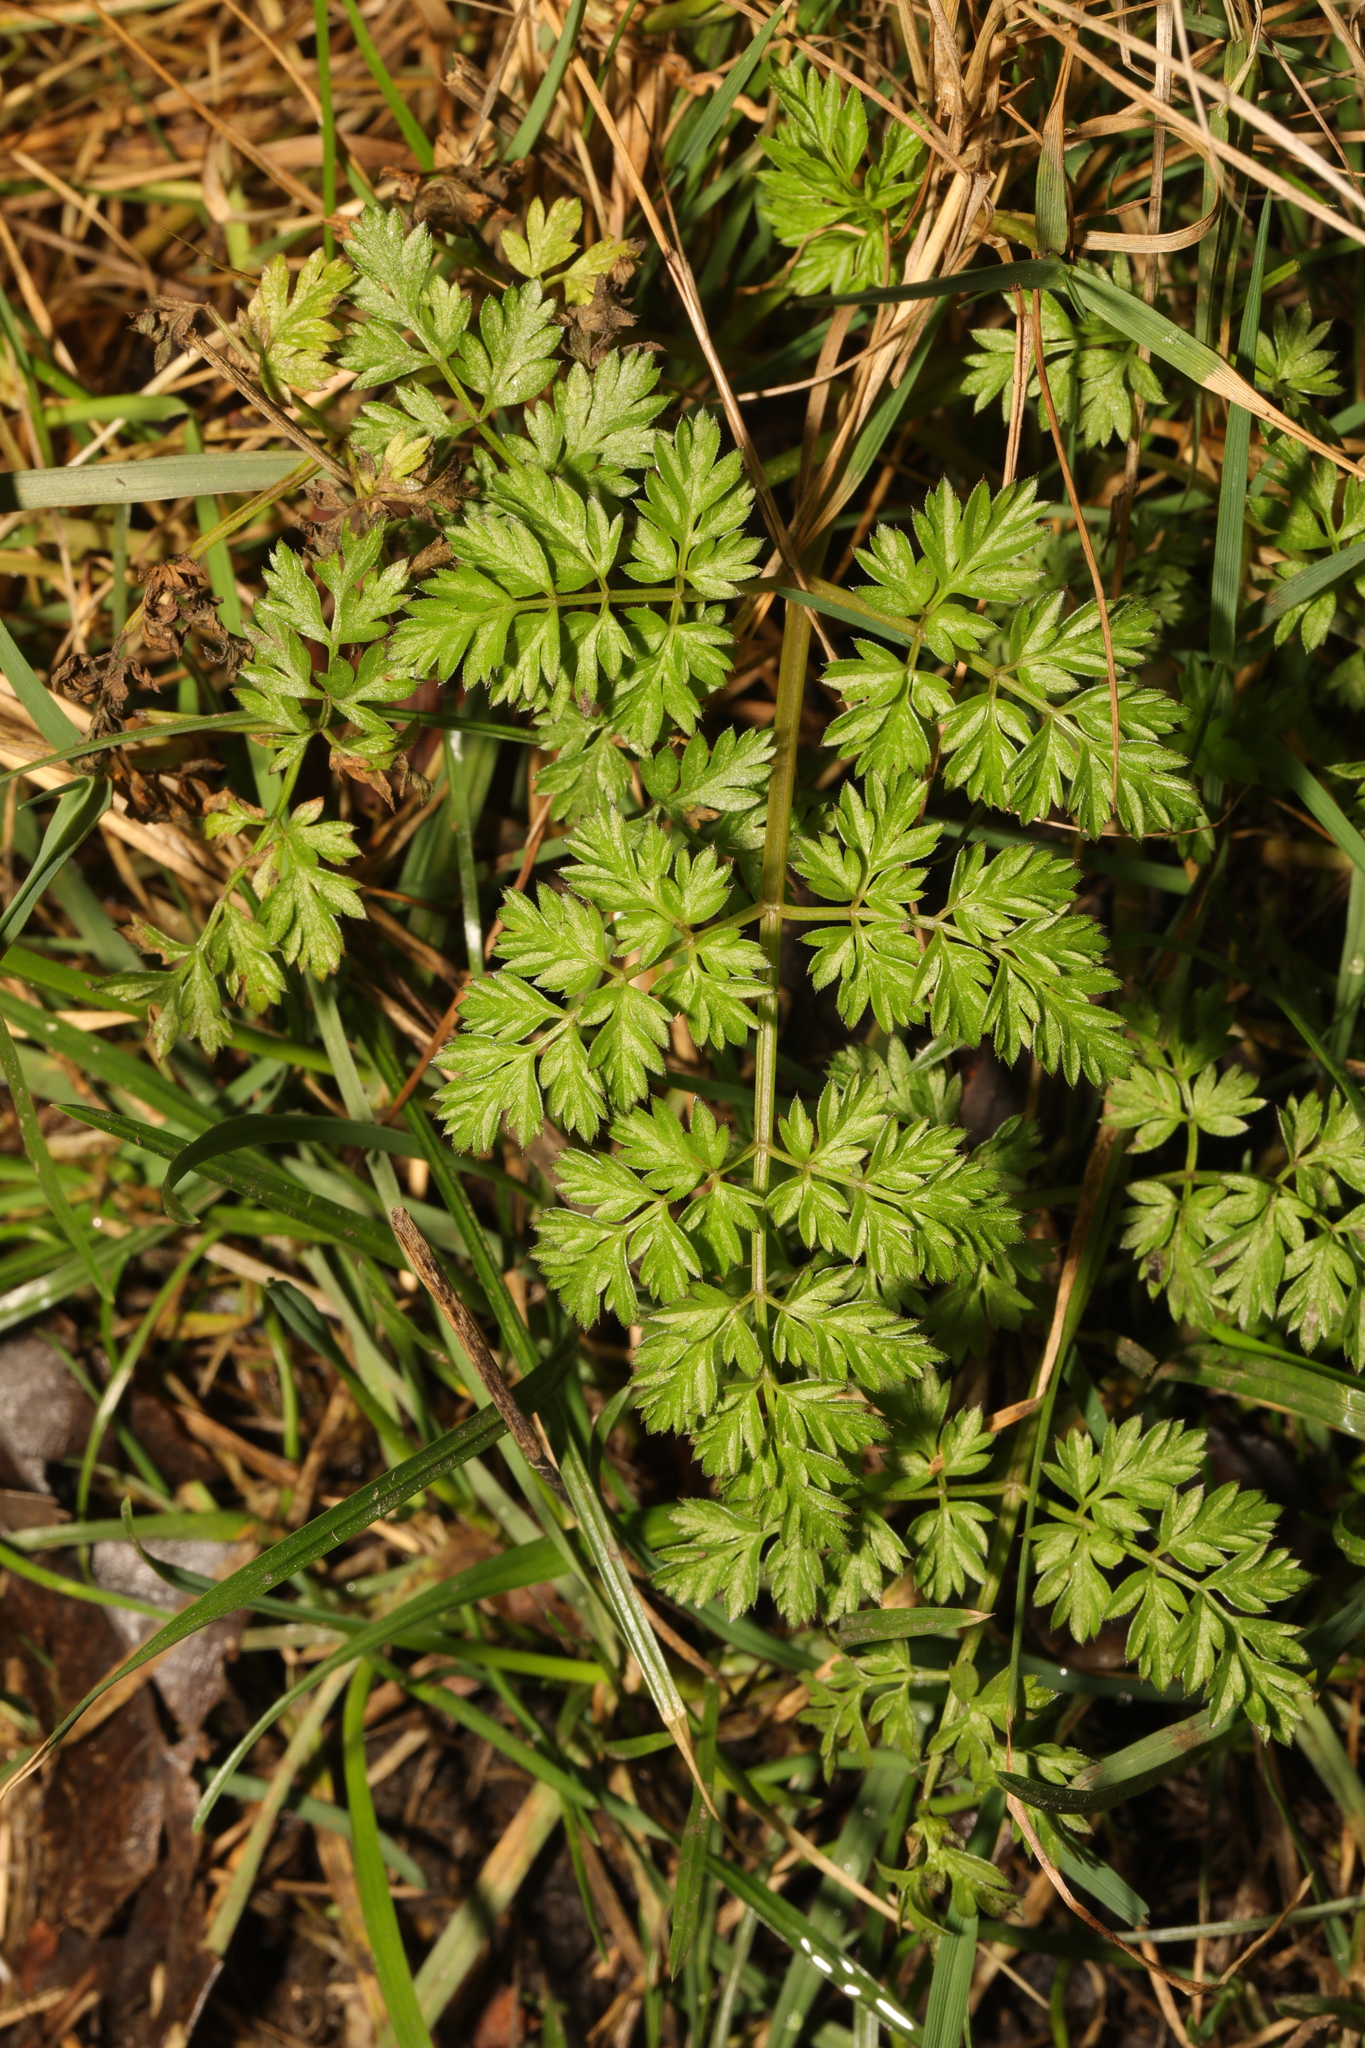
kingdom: Plantae
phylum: Tracheophyta
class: Magnoliopsida
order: Apiales
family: Apiaceae
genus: Anthriscus
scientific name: Anthriscus sylvestris
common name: Cow parsley
